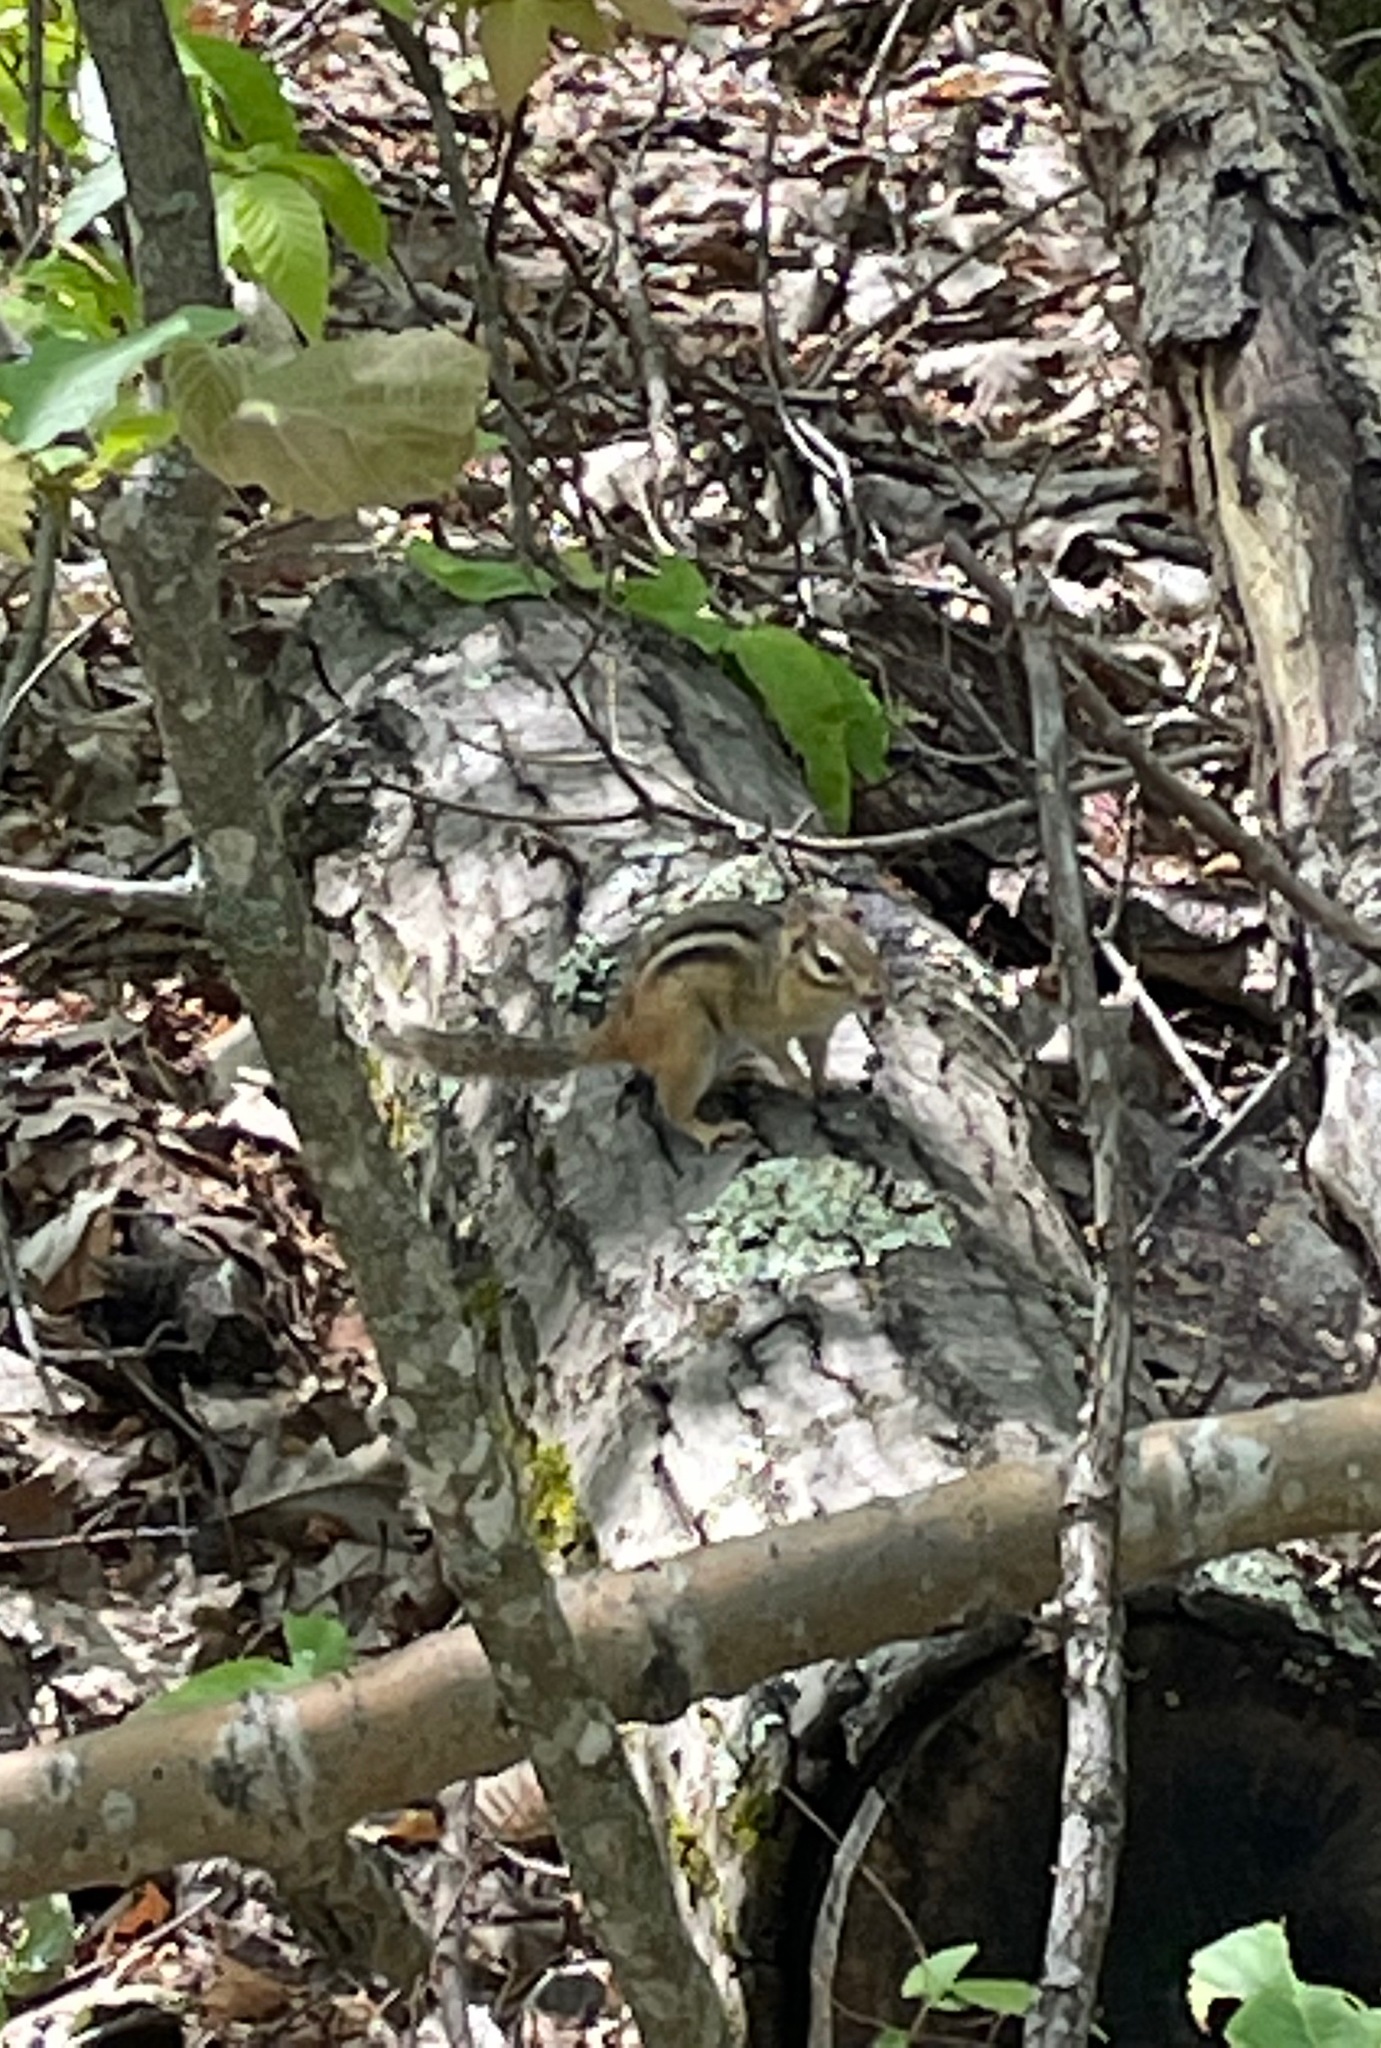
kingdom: Animalia
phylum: Chordata
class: Mammalia
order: Rodentia
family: Sciuridae
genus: Tamias
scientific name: Tamias striatus
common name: Eastern chipmunk
